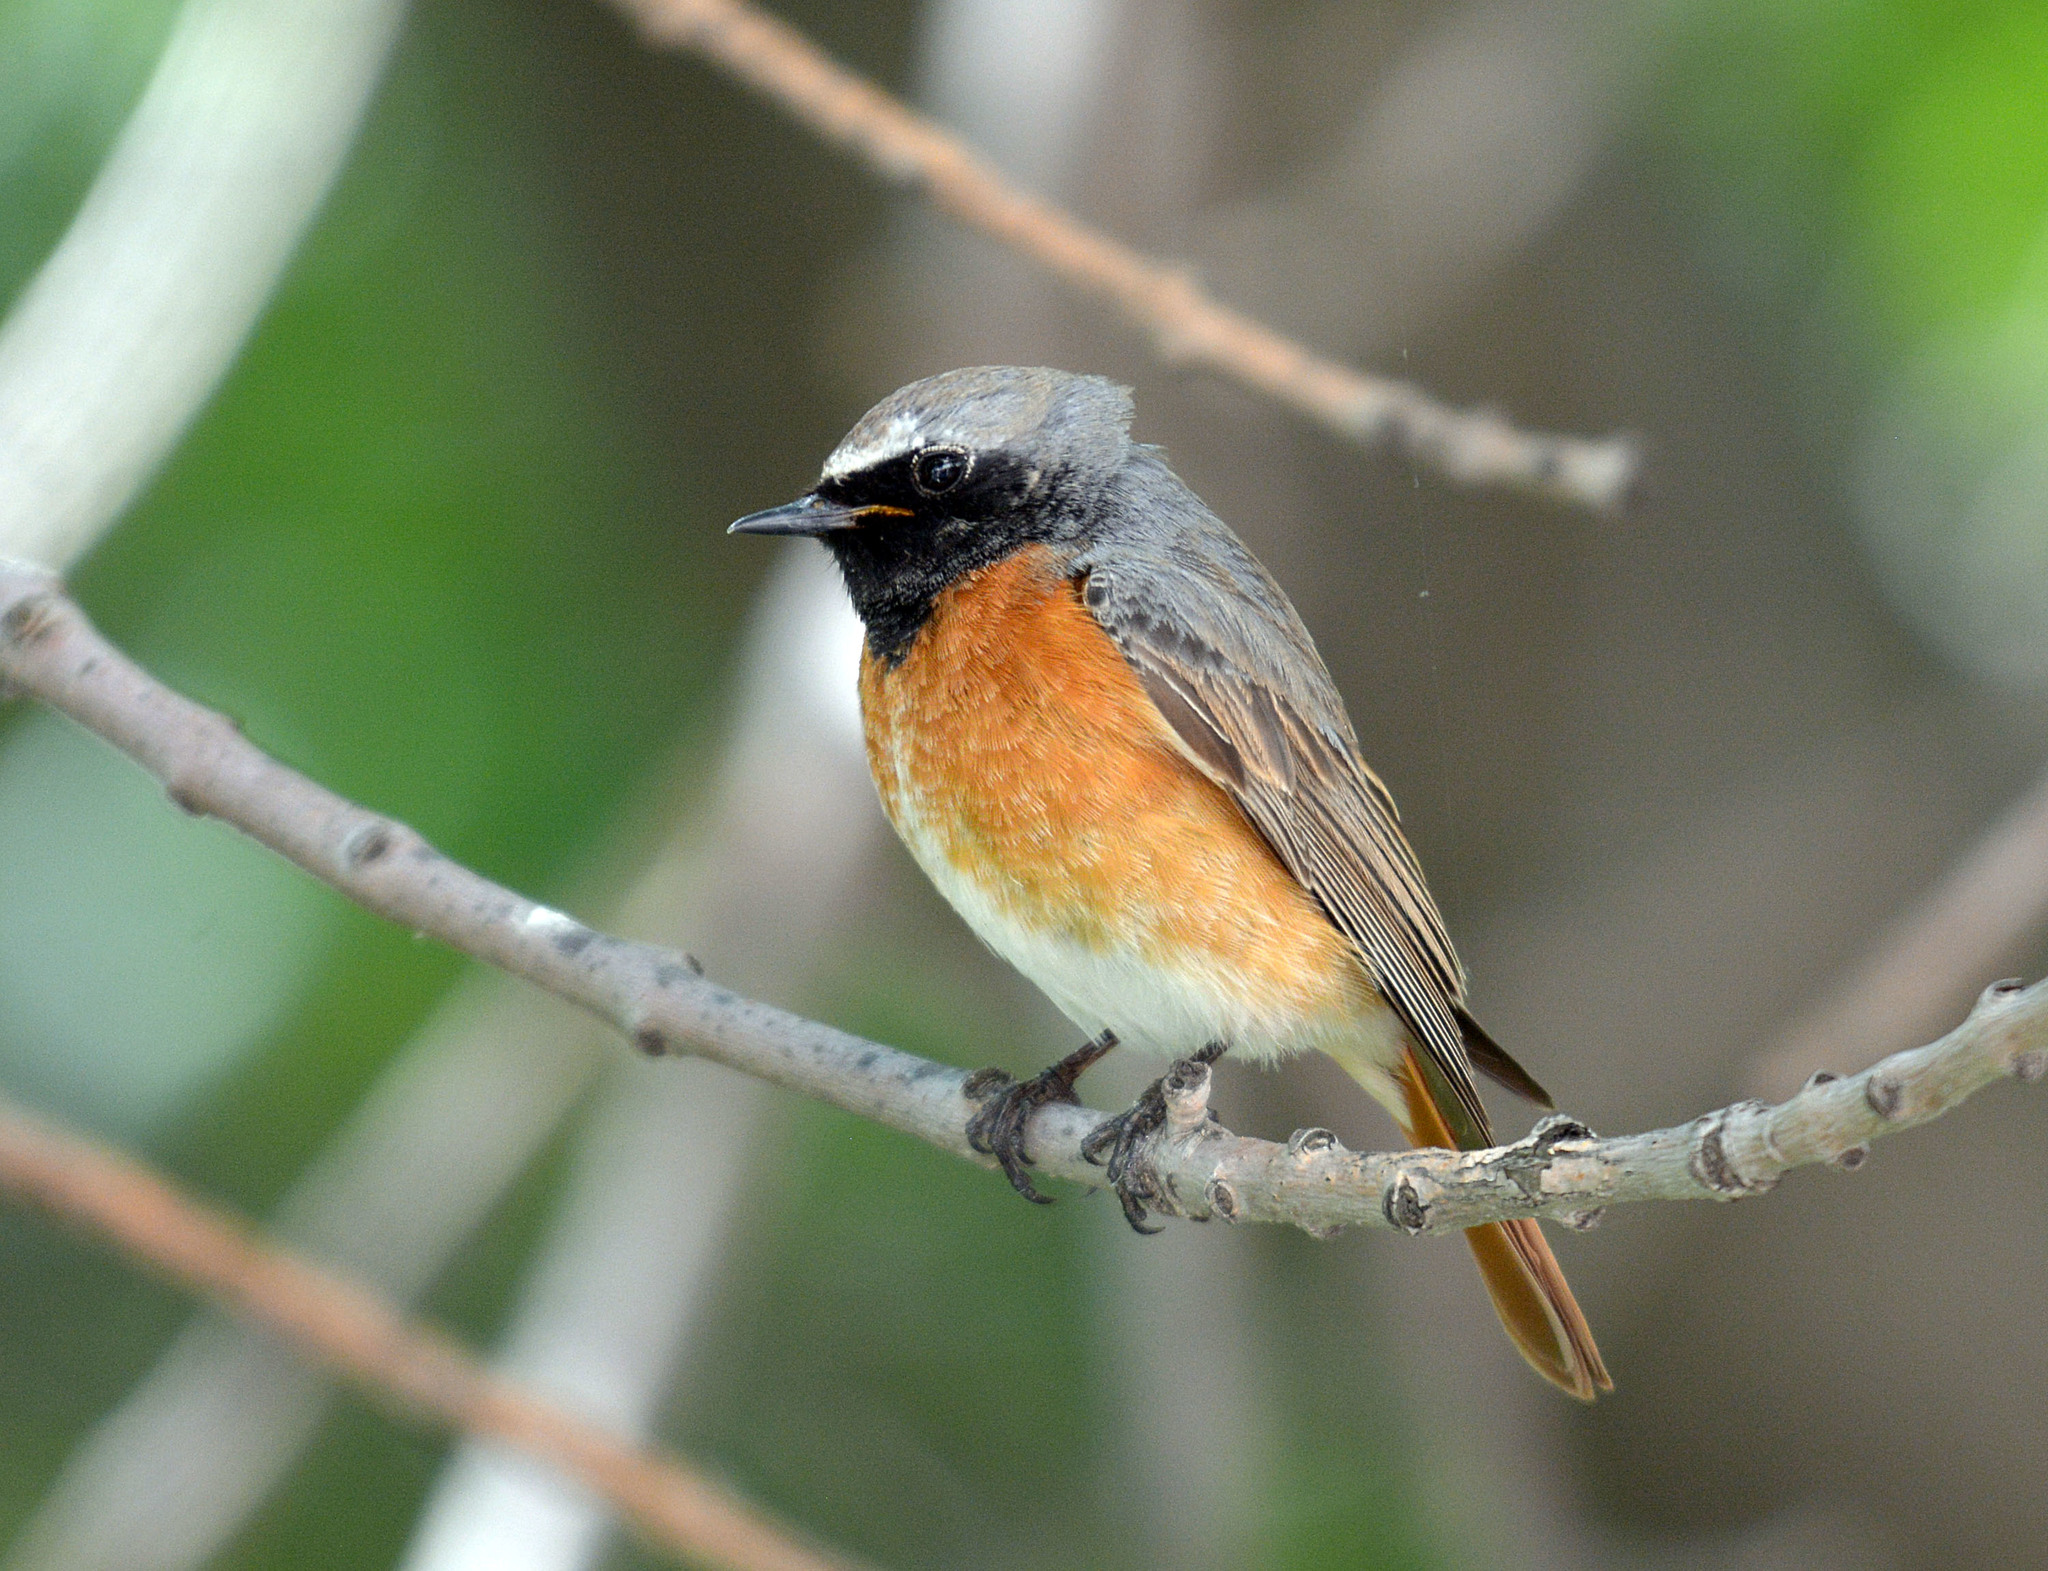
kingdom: Animalia
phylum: Chordata
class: Aves
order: Passeriformes
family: Muscicapidae
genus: Phoenicurus
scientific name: Phoenicurus phoenicurus
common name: Common redstart
